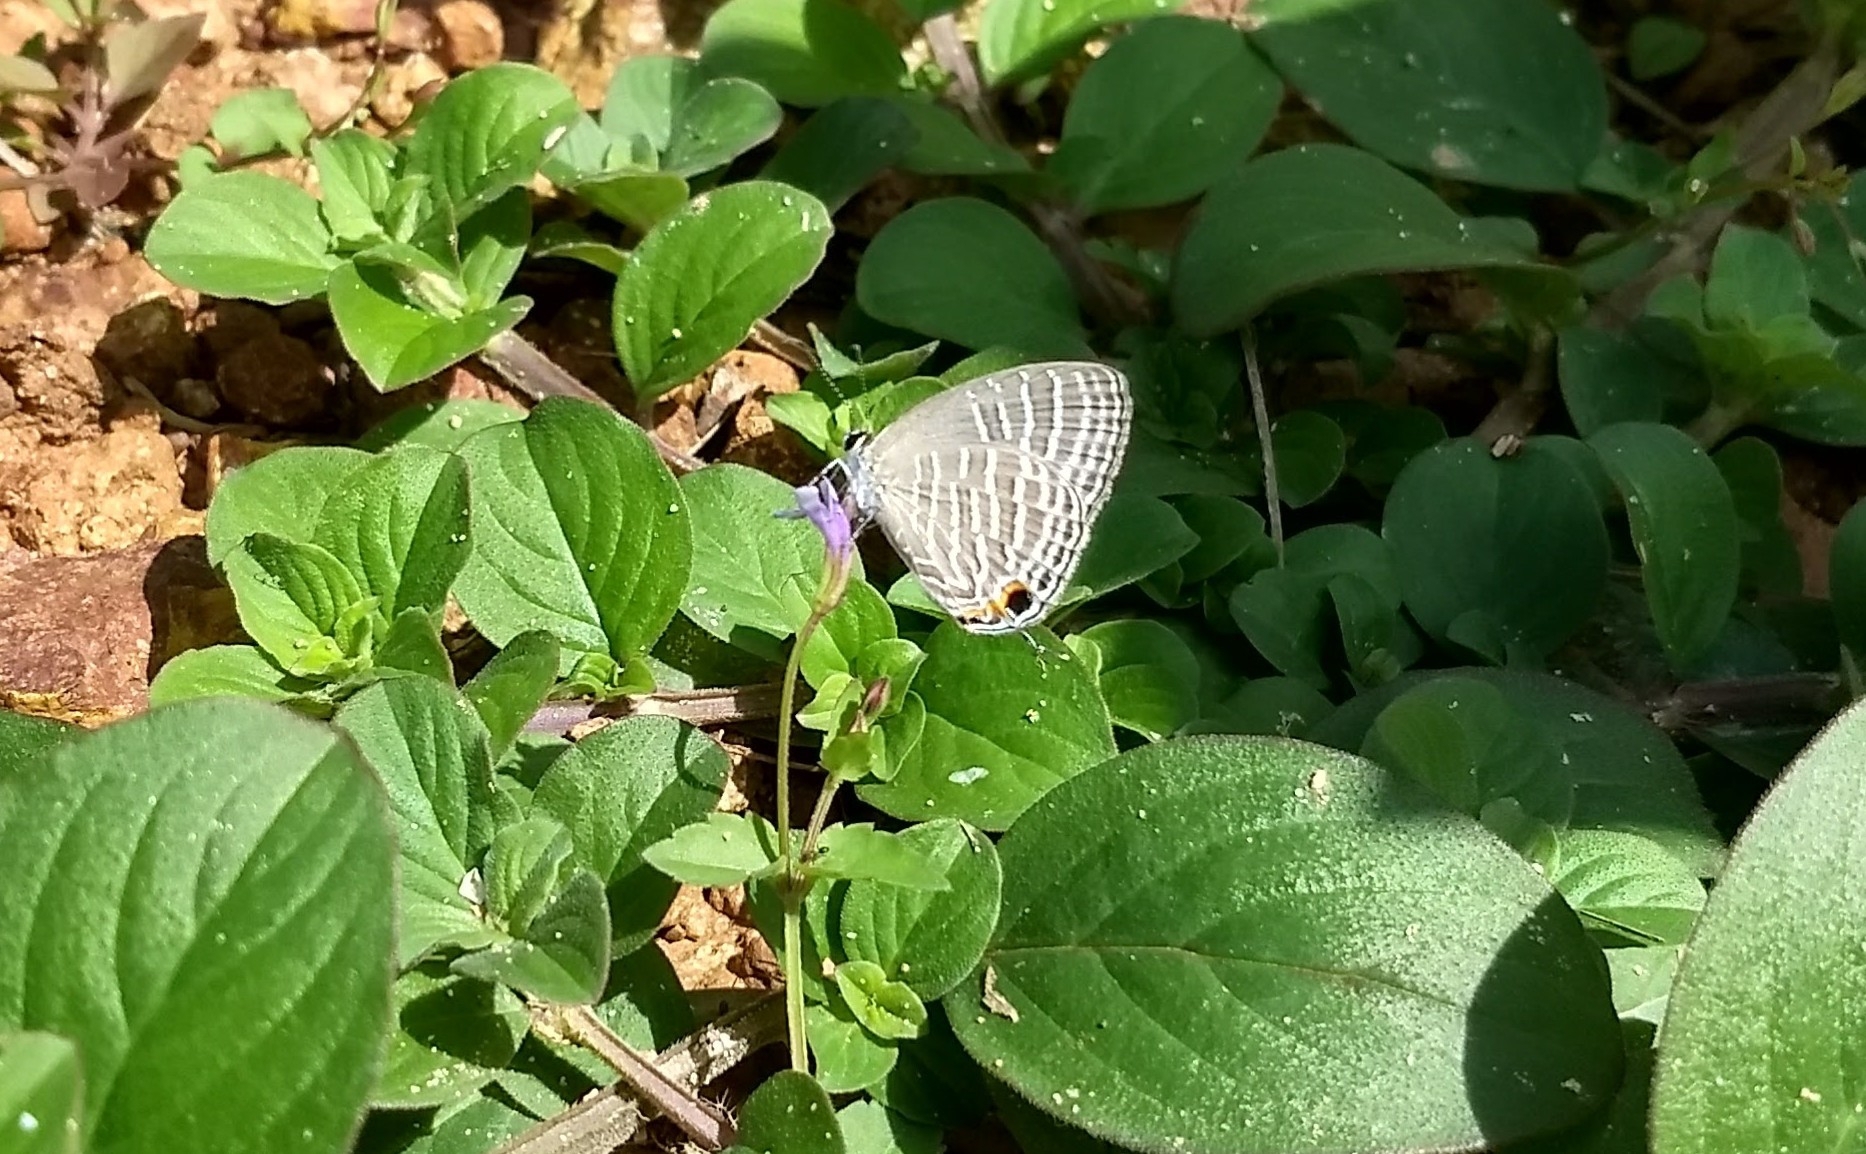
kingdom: Animalia
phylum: Arthropoda
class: Insecta
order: Lepidoptera
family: Lycaenidae
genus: Jamides
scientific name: Jamides celeno
